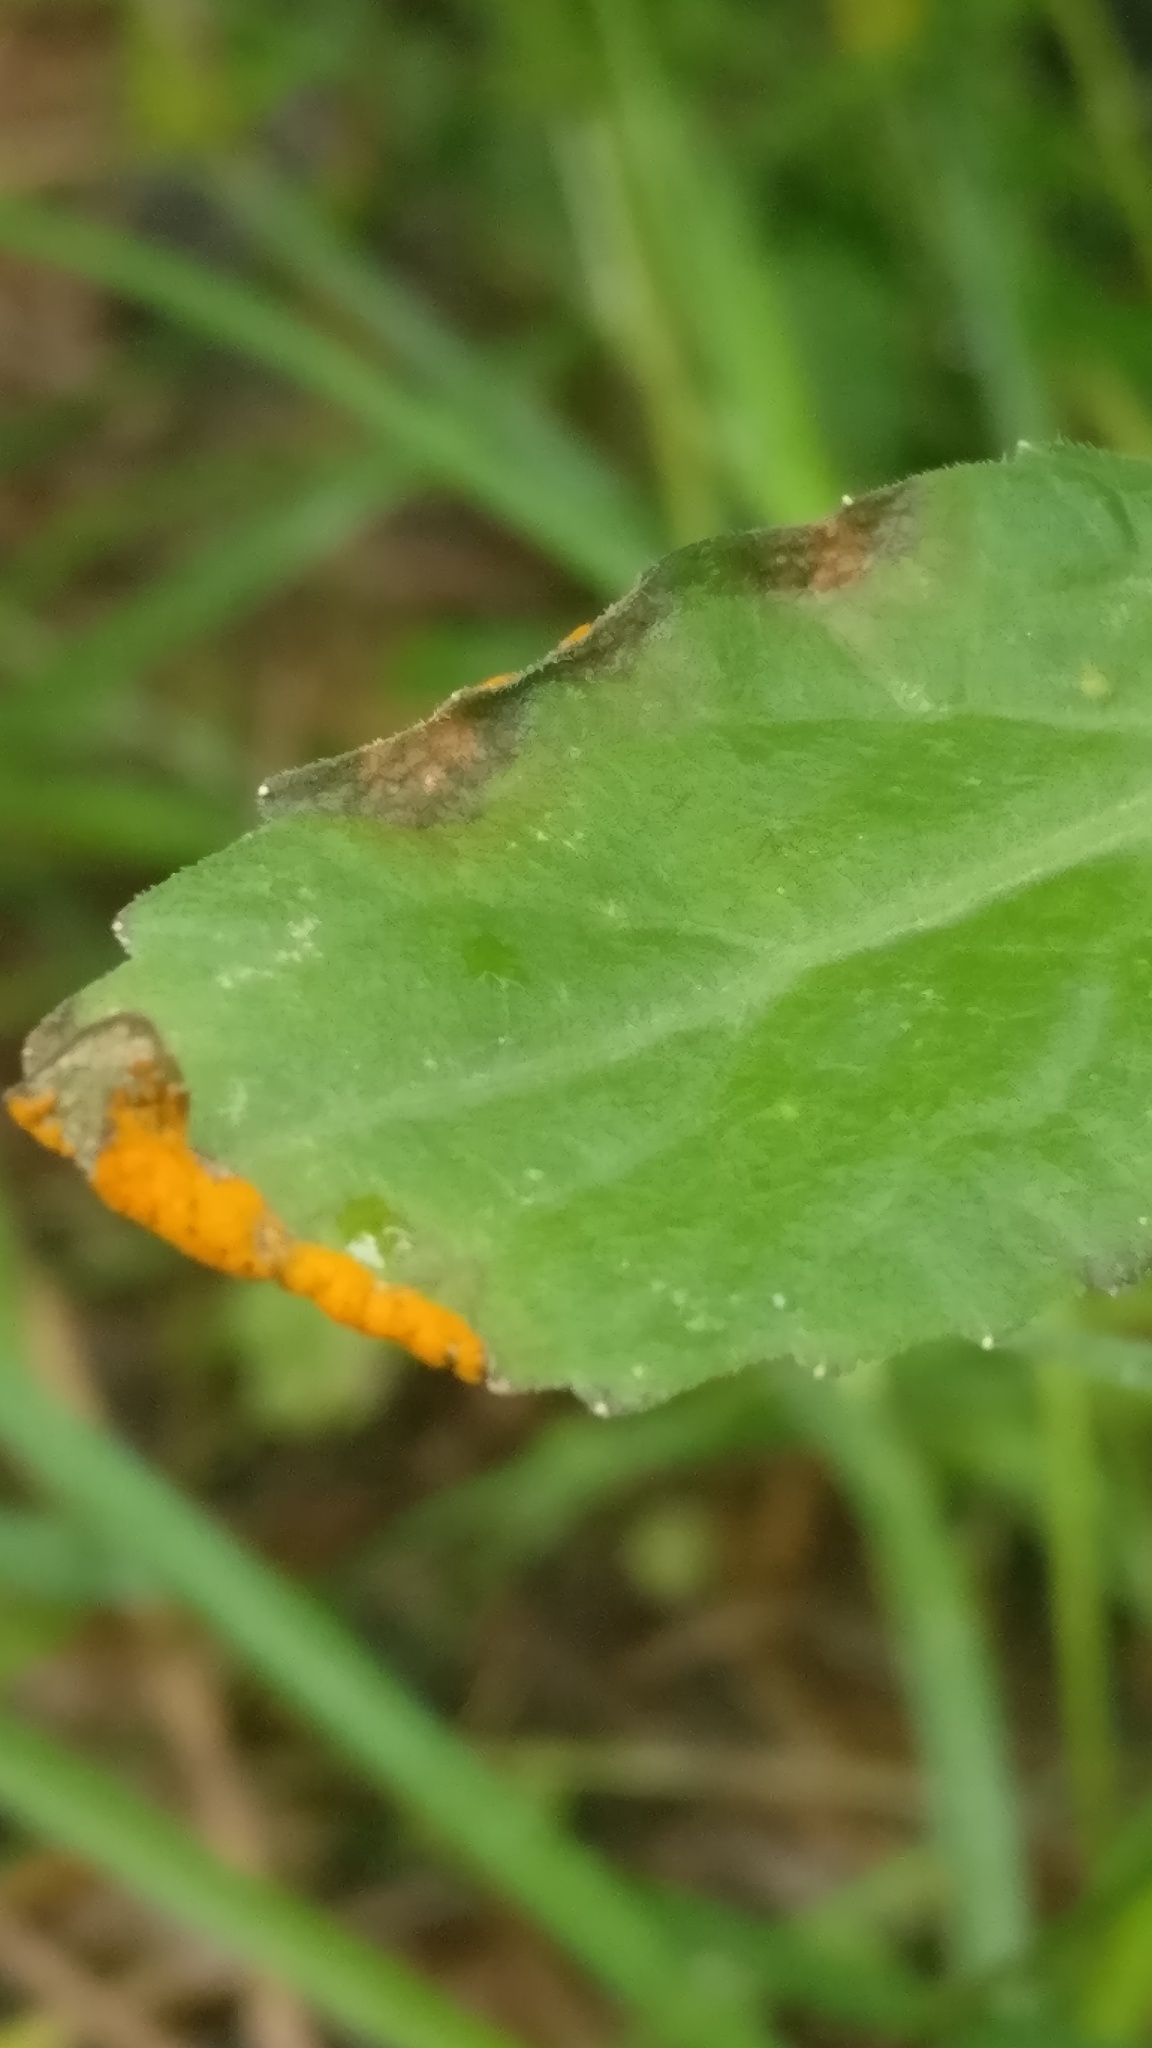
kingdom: Fungi
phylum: Basidiomycota
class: Pucciniomycetes
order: Pucciniales
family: Coleosporiaceae
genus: Coleosporium
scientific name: Coleosporium campanulae
